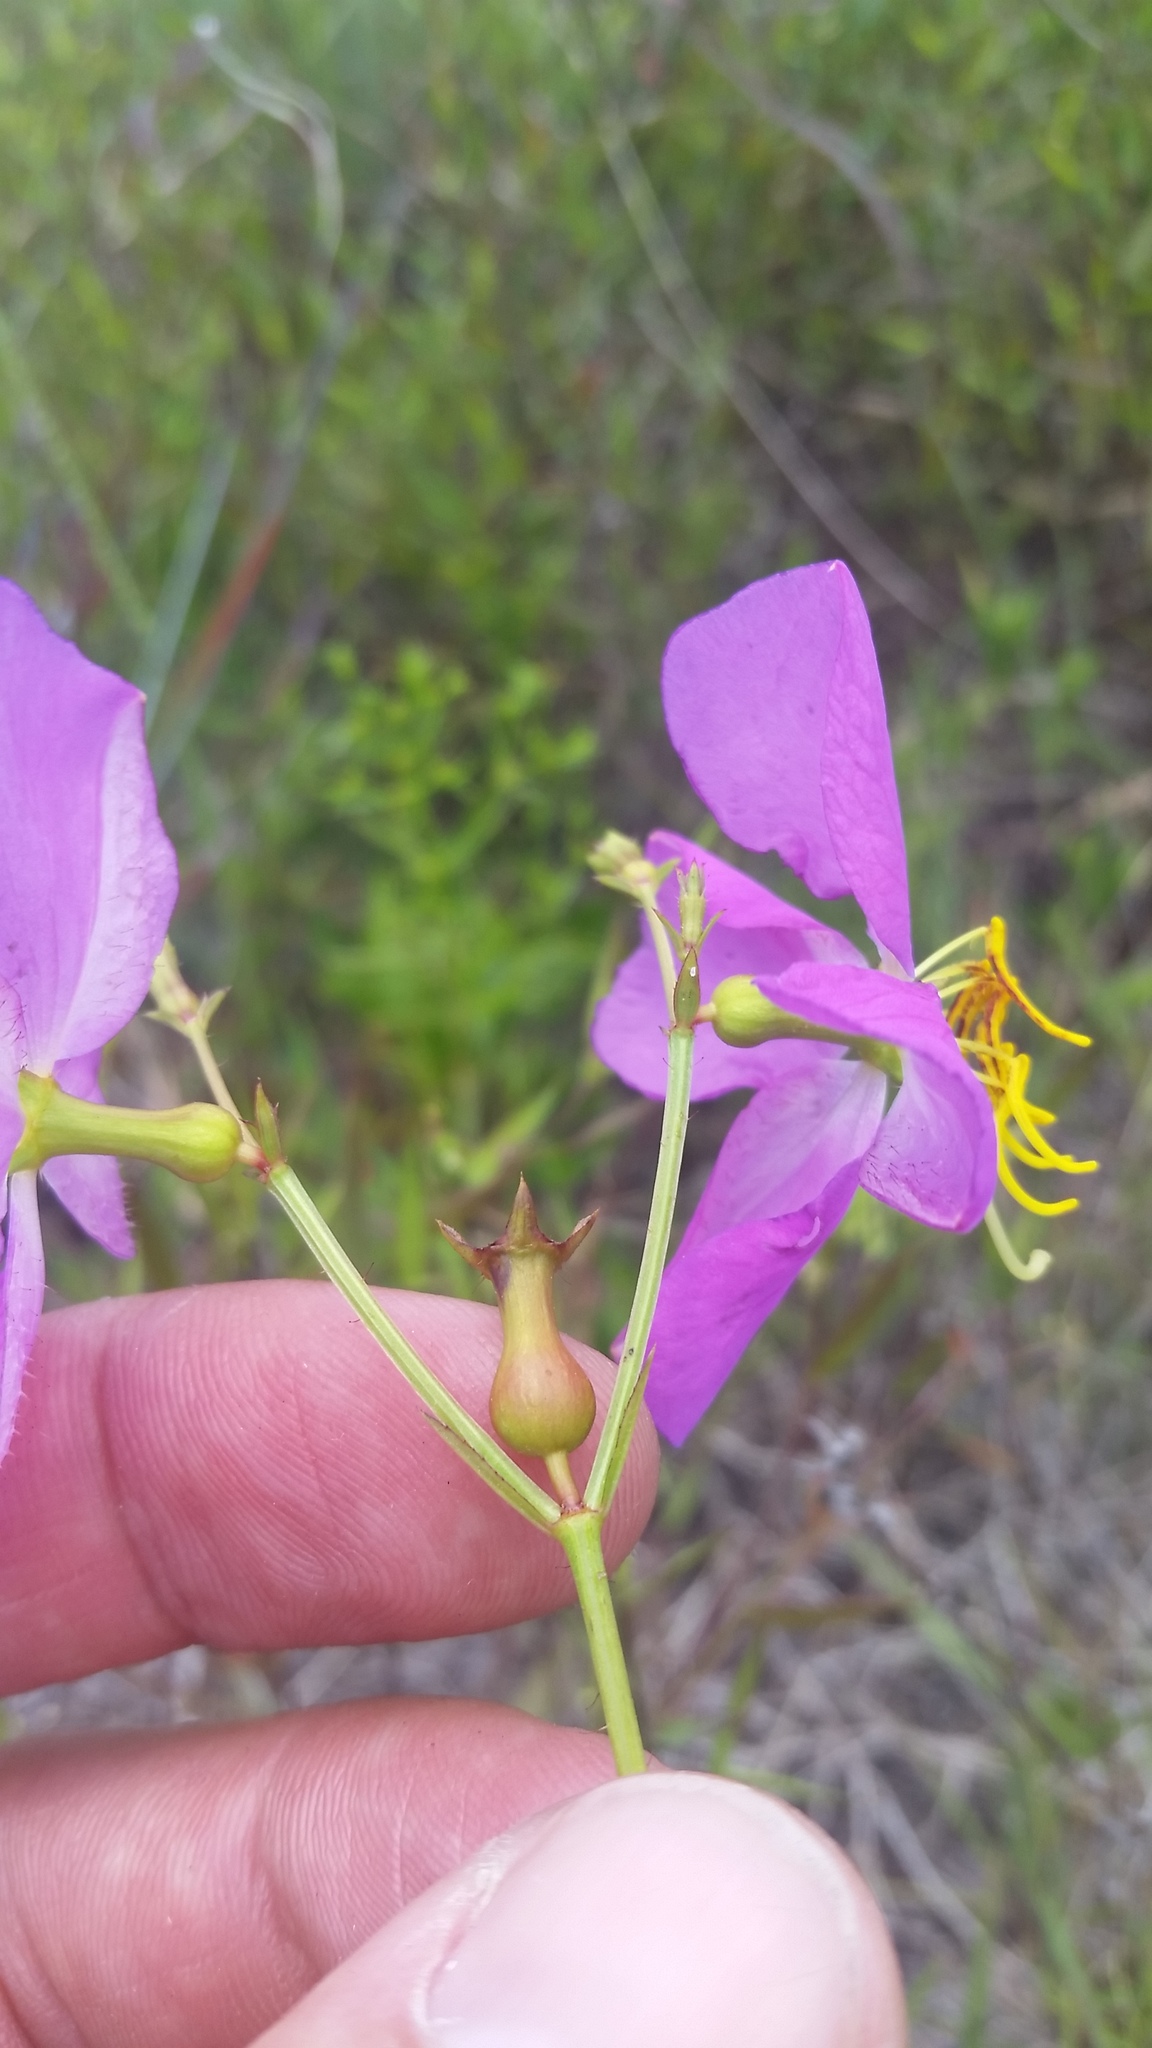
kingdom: Plantae
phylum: Tracheophyta
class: Magnoliopsida
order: Myrtales
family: Melastomataceae
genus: Rhexia
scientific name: Rhexia nashii
